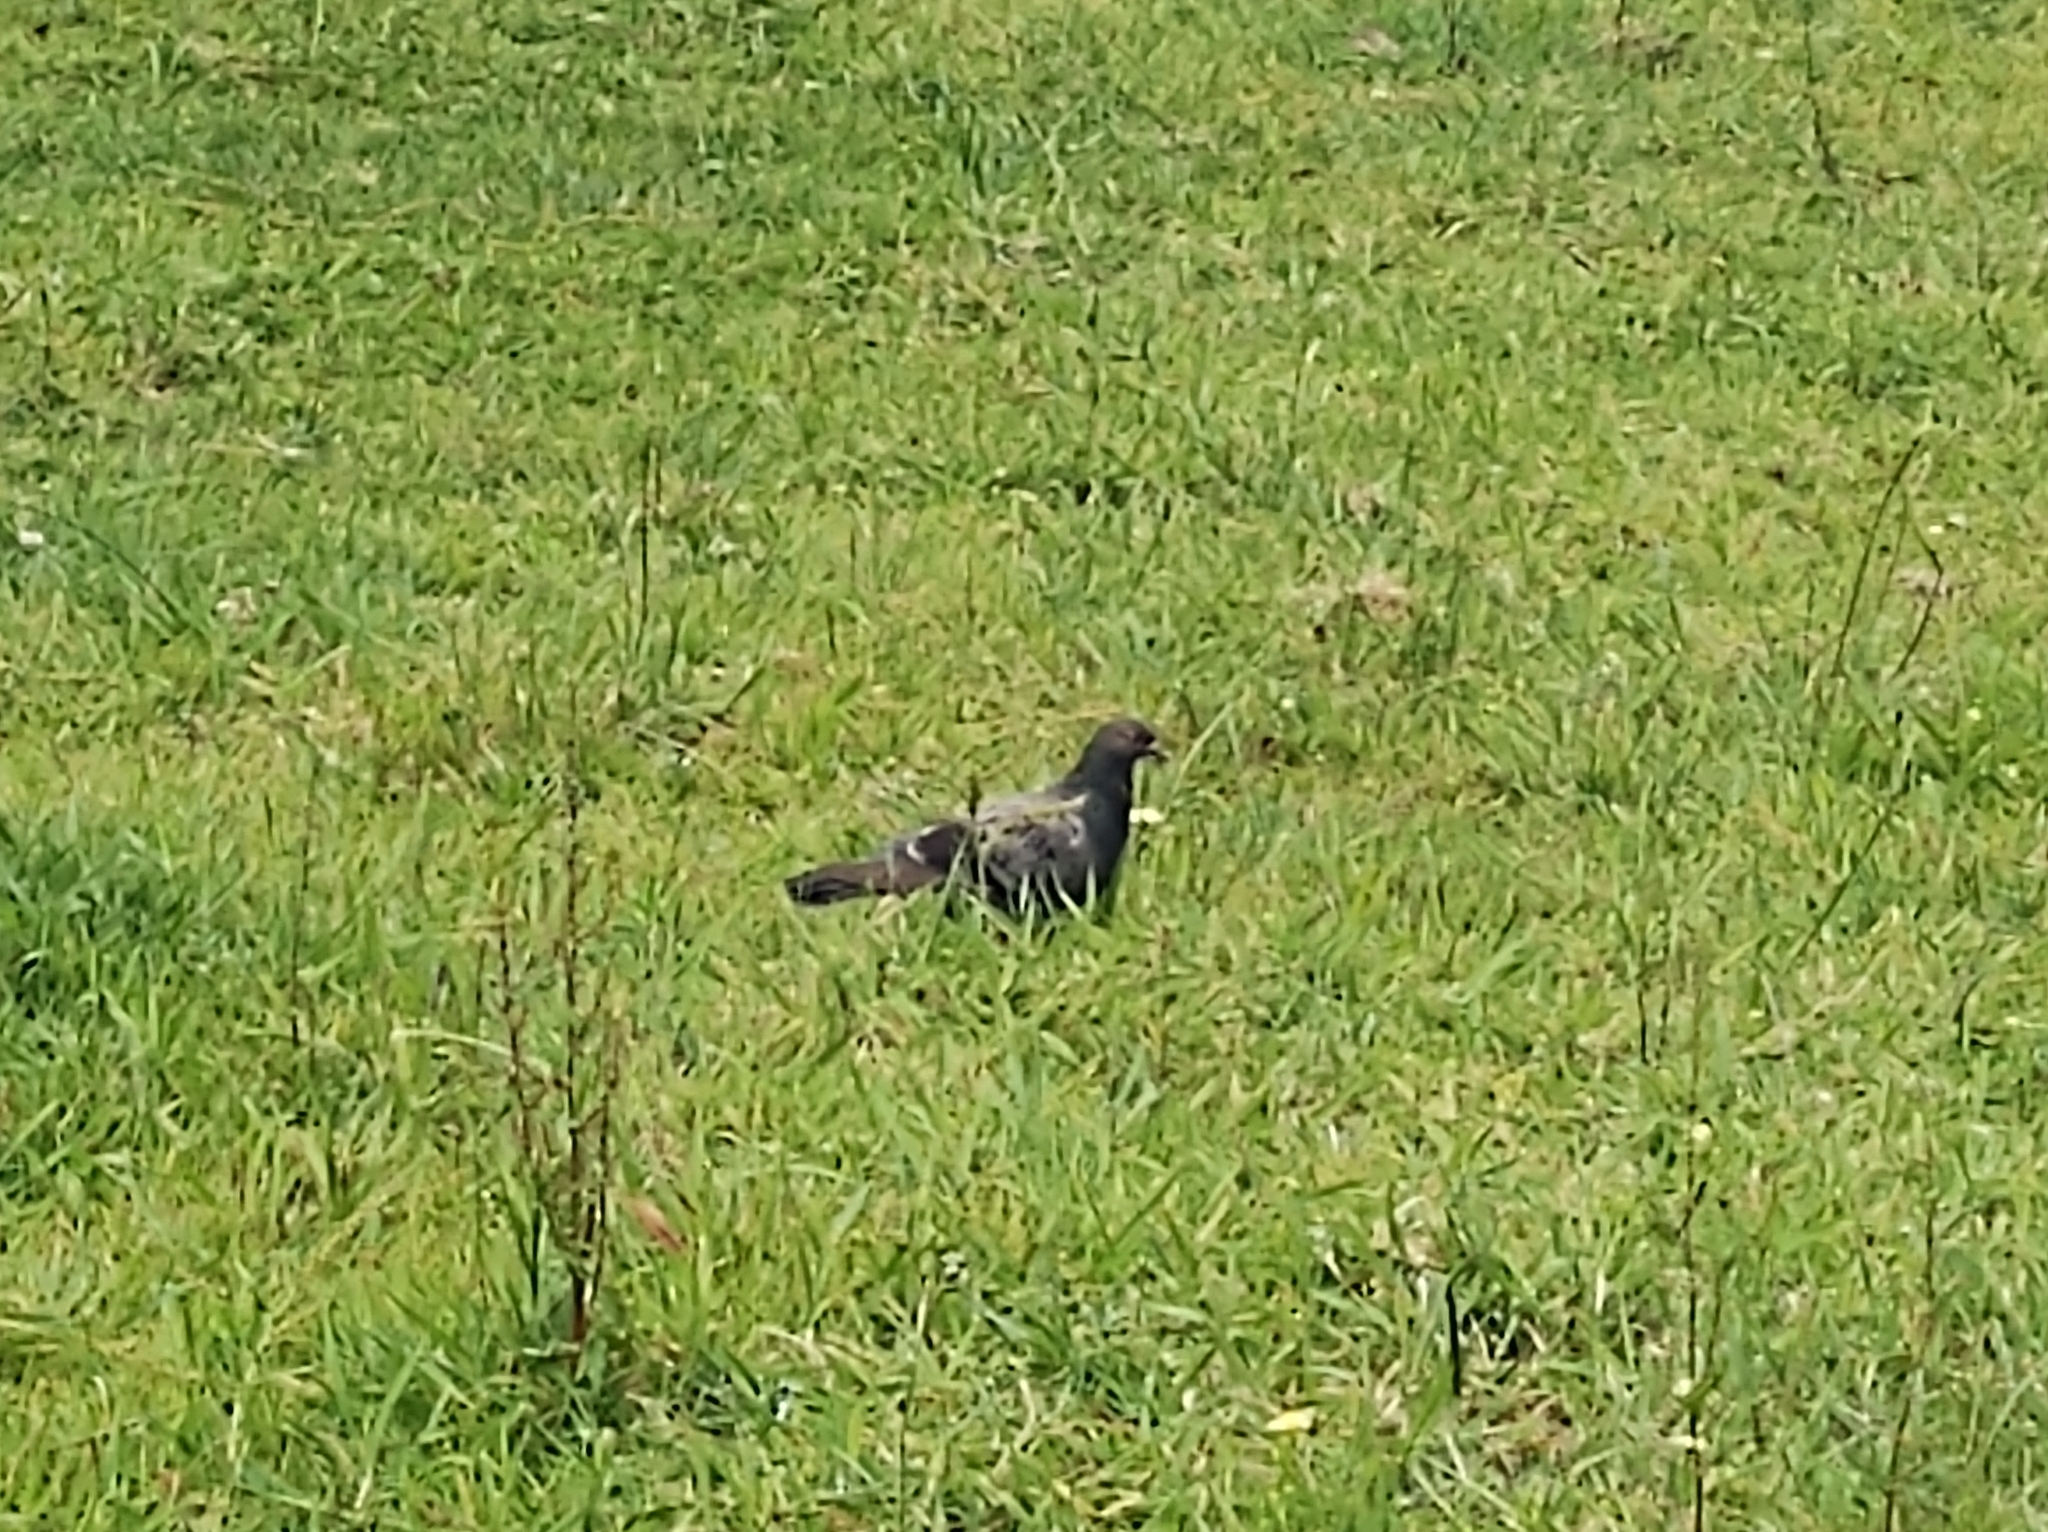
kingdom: Animalia
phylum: Chordata
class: Aves
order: Columbiformes
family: Columbidae
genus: Columba
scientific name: Columba livia
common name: Rock pigeon
